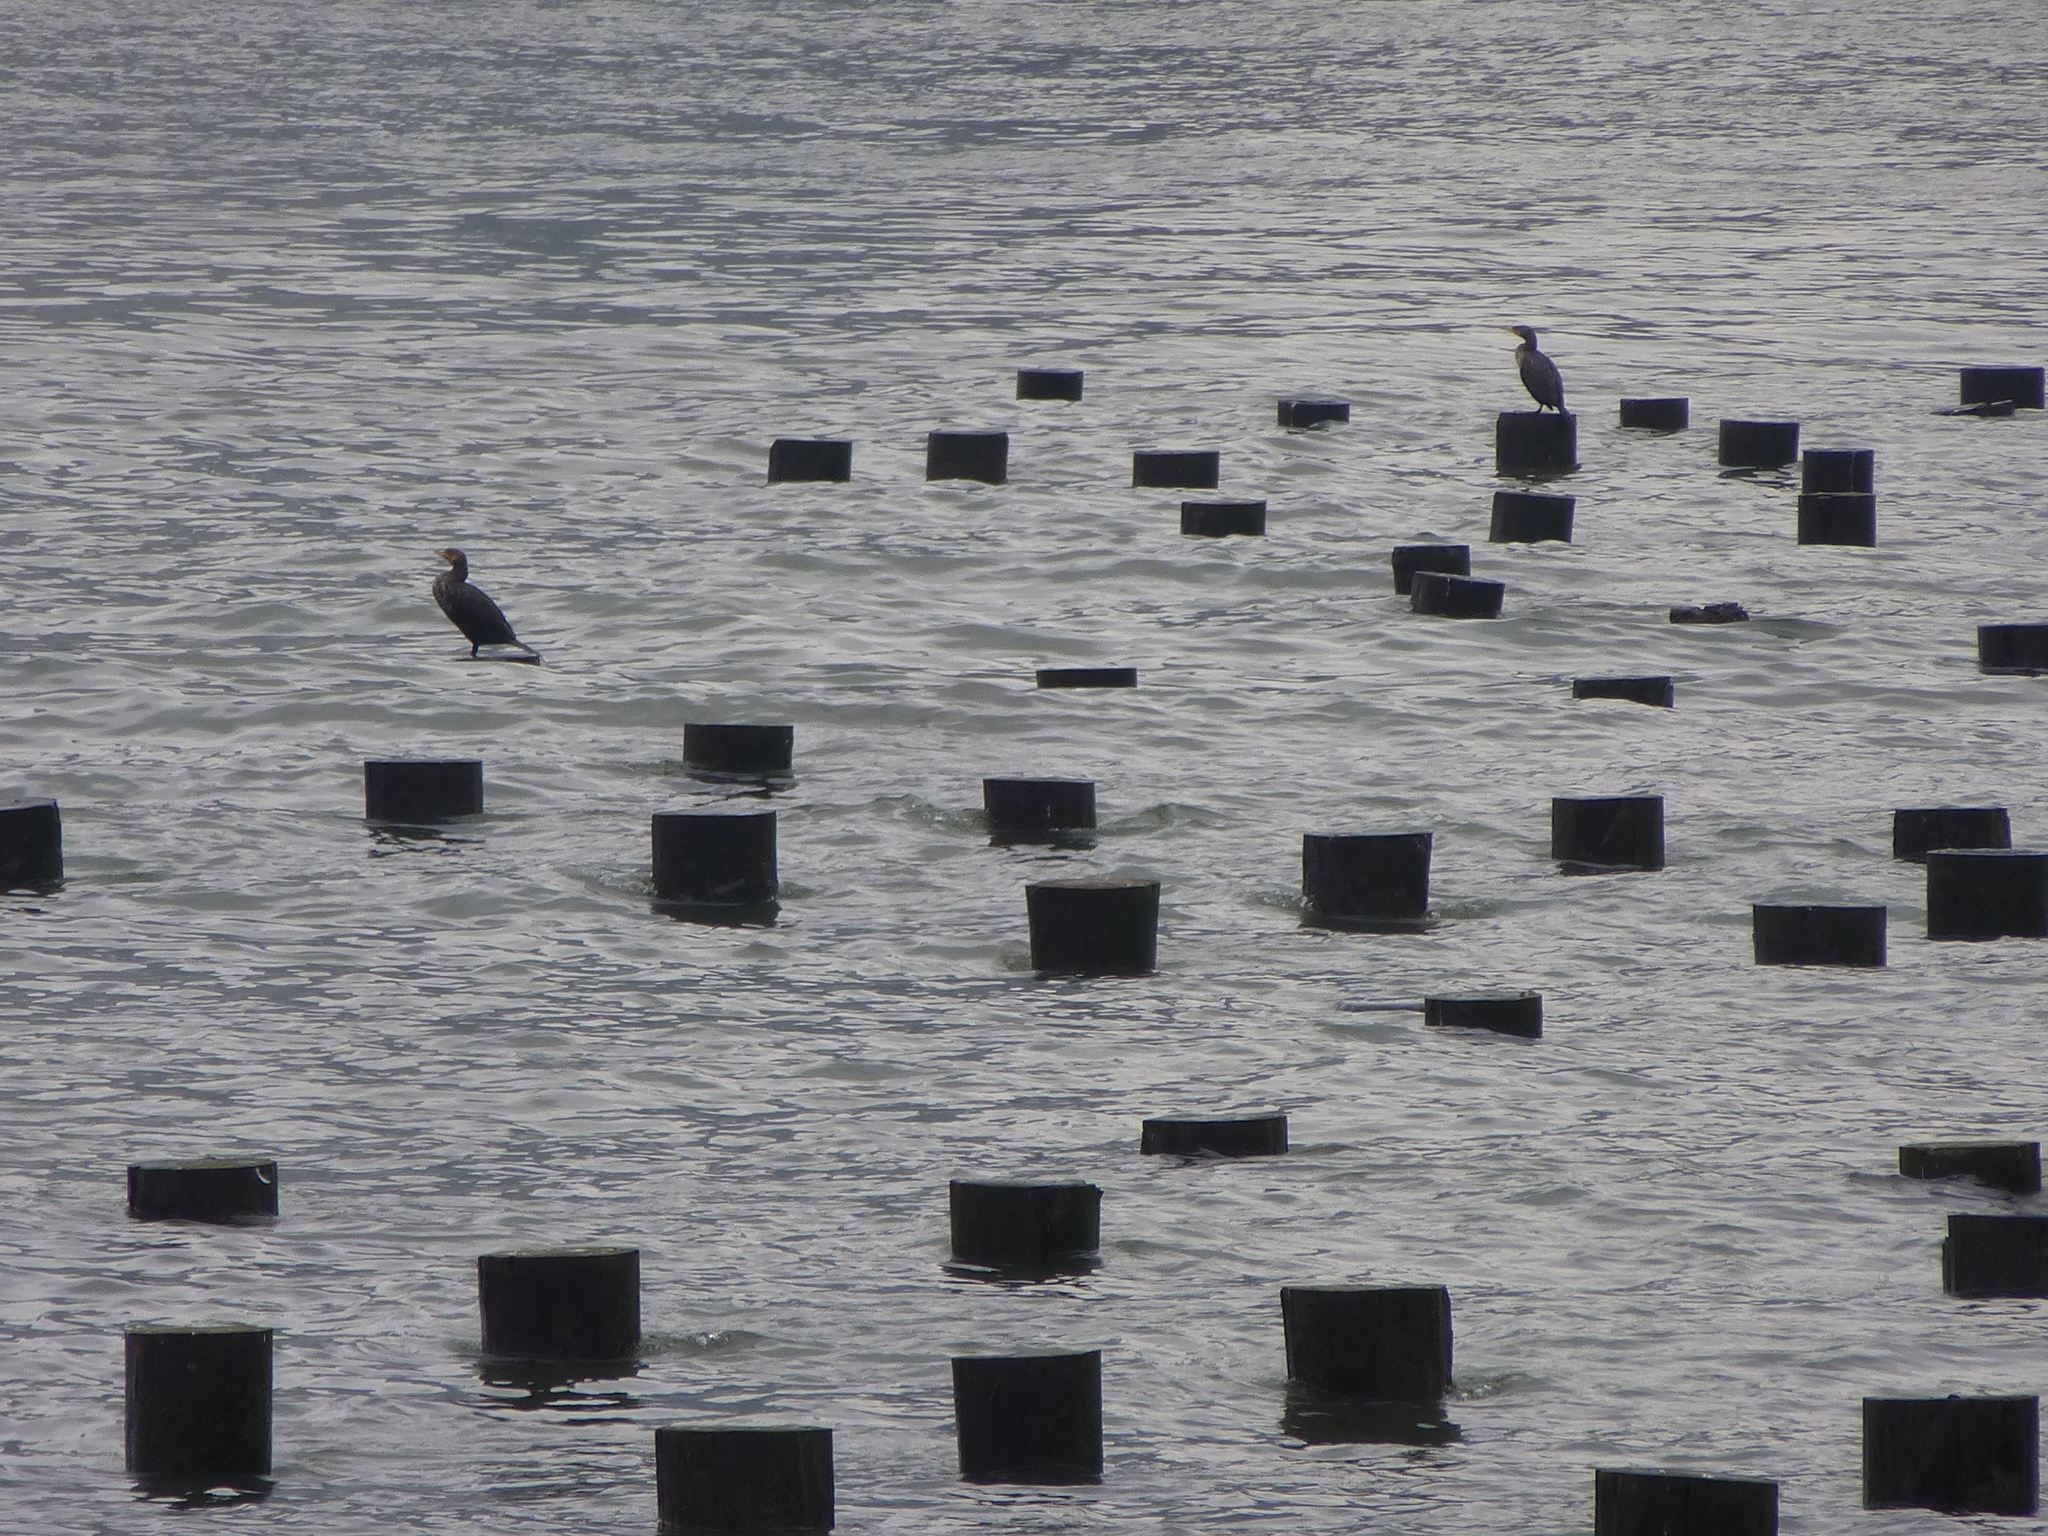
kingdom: Animalia
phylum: Chordata
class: Aves
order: Suliformes
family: Phalacrocoracidae
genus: Phalacrocorax
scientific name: Phalacrocorax auritus
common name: Double-crested cormorant
